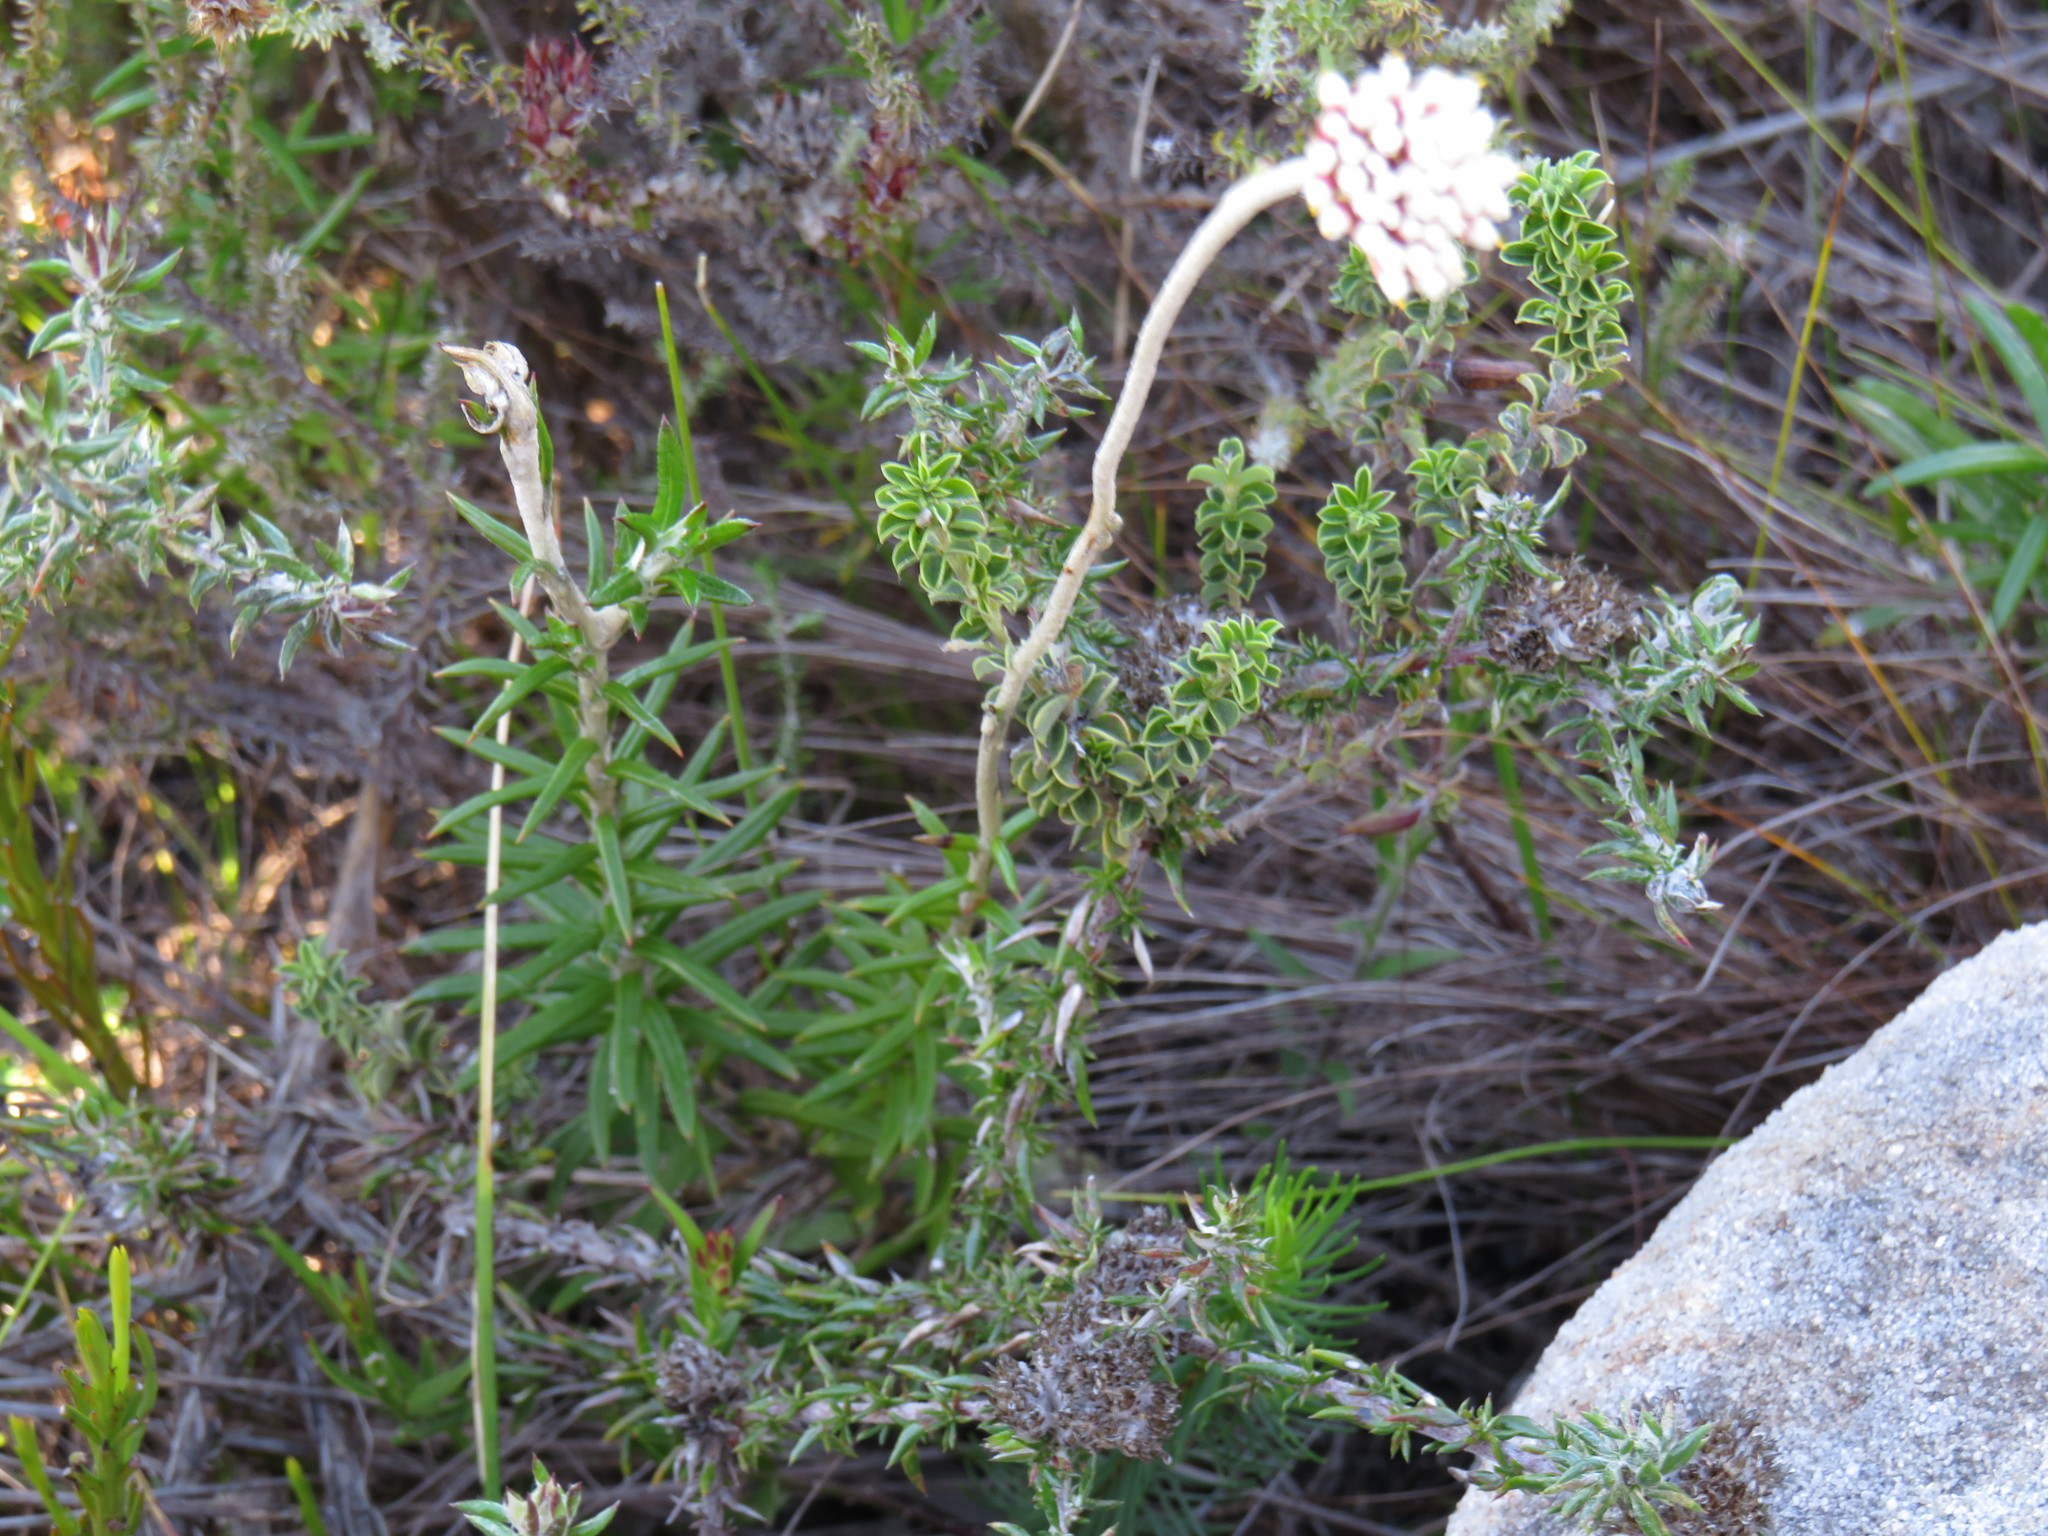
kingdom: Plantae
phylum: Tracheophyta
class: Magnoliopsida
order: Asterales
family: Asteraceae
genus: Anaxeton
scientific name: Anaxeton arborescens
